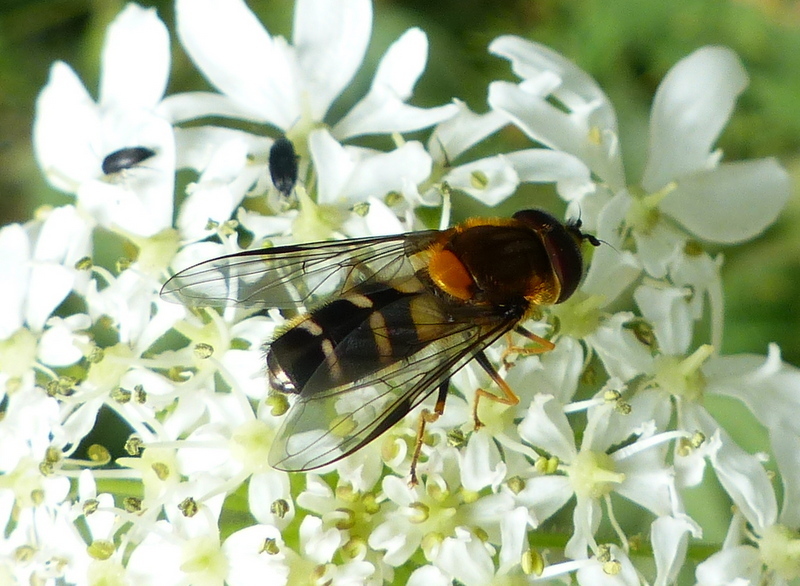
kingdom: Animalia
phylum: Arthropoda
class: Insecta
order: Diptera
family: Syrphidae
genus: Leucozona
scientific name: Leucozona glaucia
